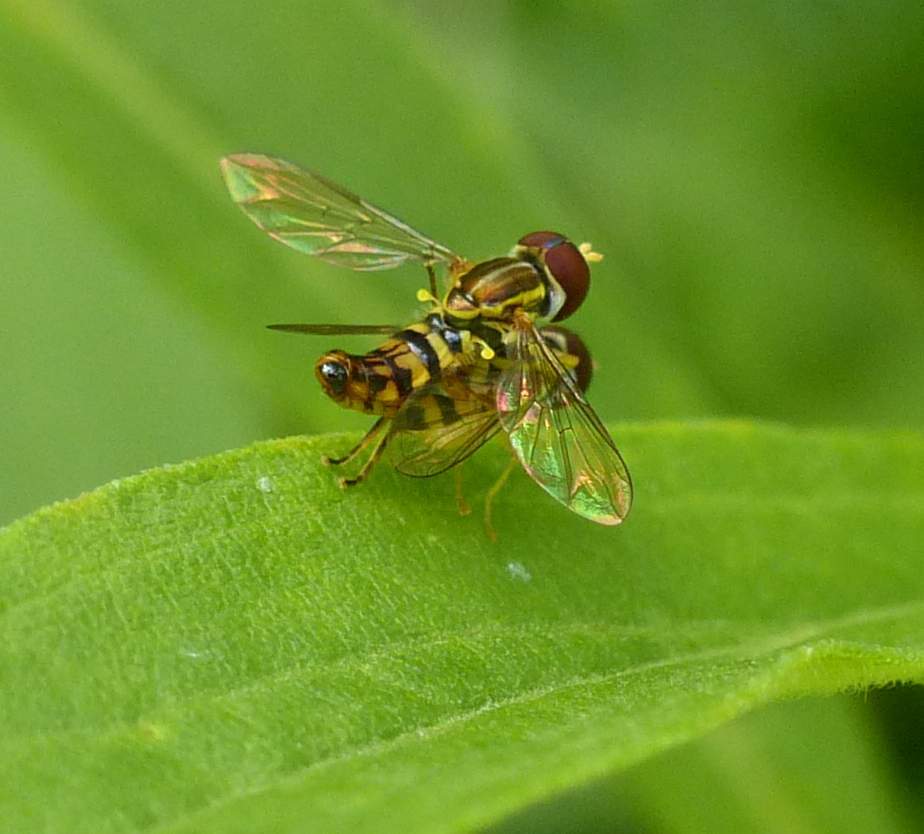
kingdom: Animalia
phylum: Arthropoda
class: Insecta
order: Diptera
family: Syrphidae
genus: Toxomerus
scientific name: Toxomerus geminatus
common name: Eastern calligrapher
